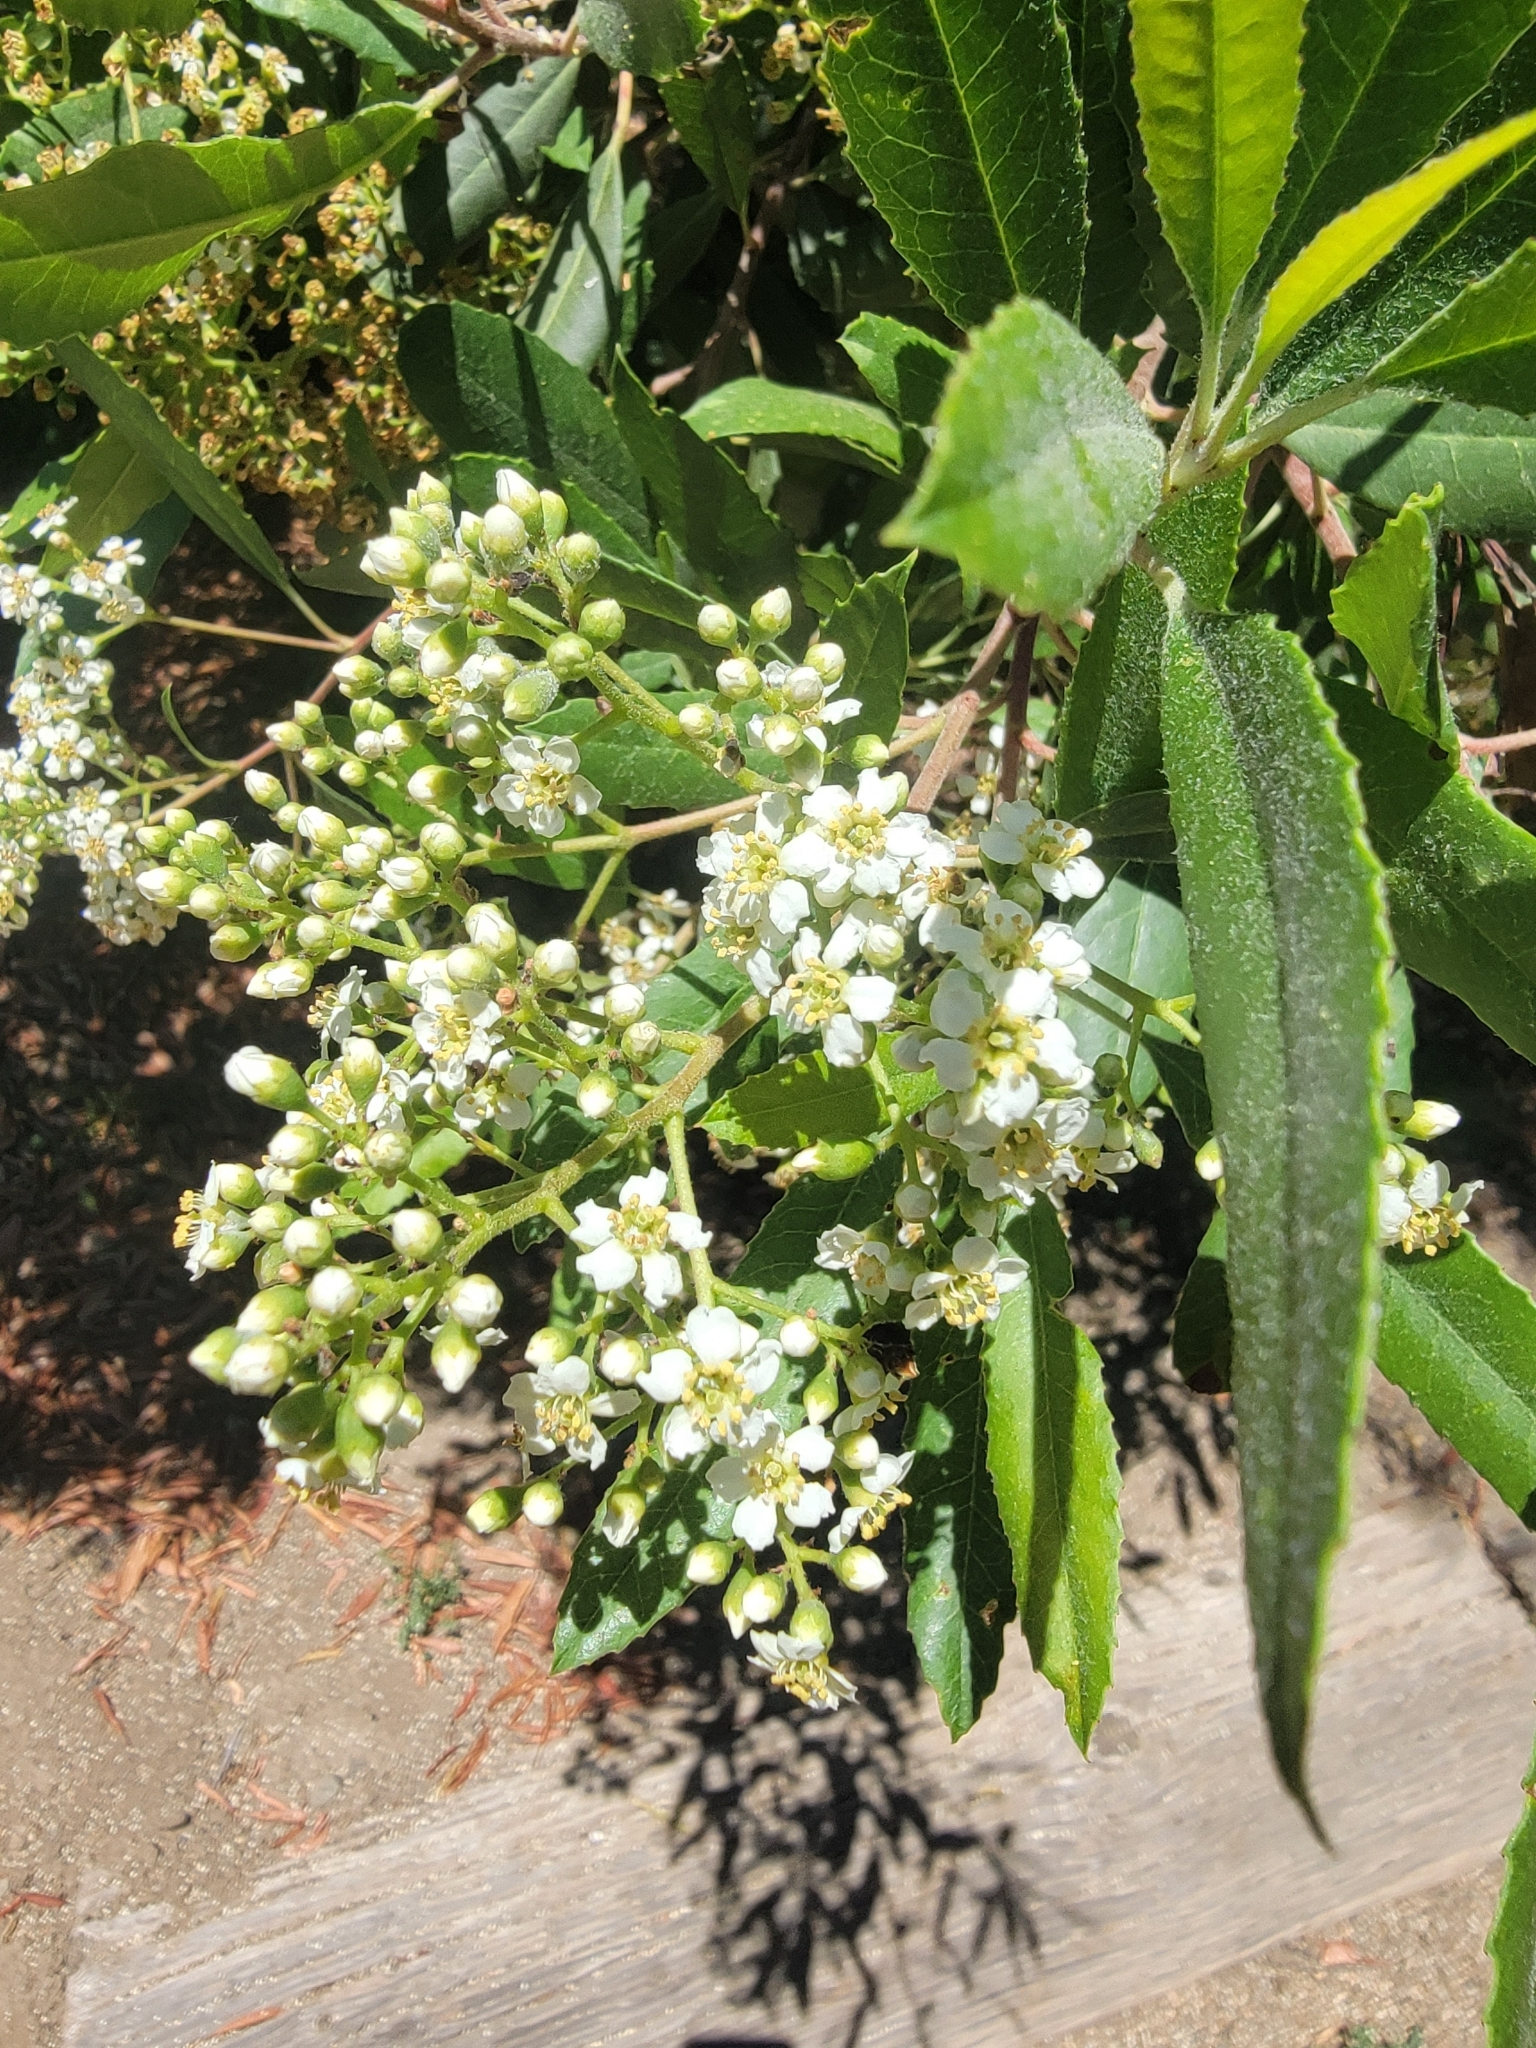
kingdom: Plantae
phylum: Tracheophyta
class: Magnoliopsida
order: Rosales
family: Rosaceae
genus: Heteromeles
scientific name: Heteromeles arbutifolia
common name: California-holly
